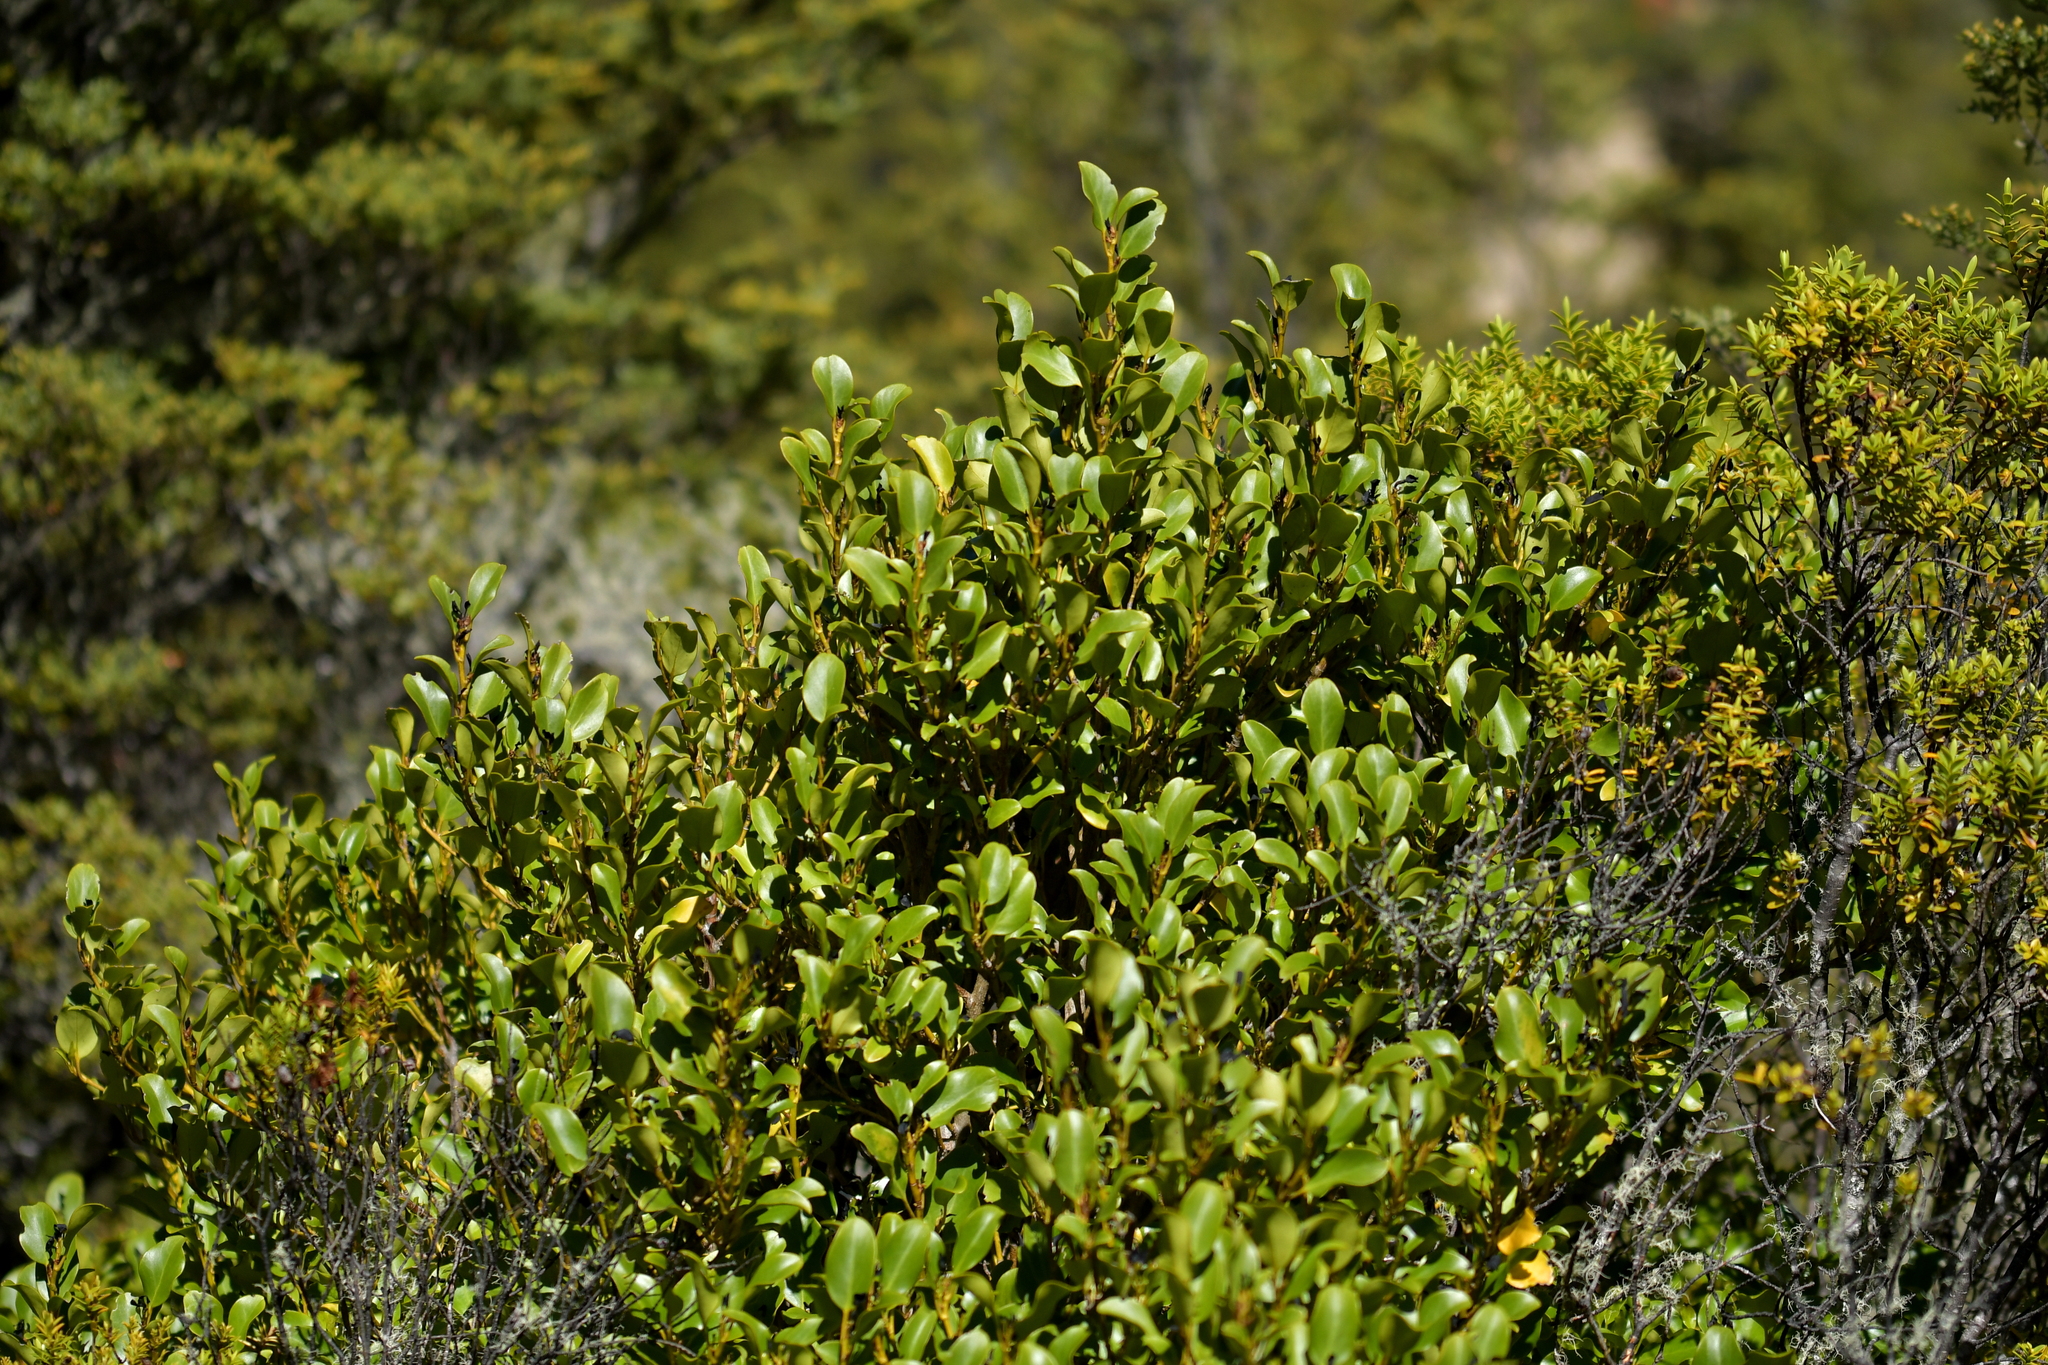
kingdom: Plantae
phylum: Tracheophyta
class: Magnoliopsida
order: Apiales
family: Griseliniaceae
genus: Griselinia
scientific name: Griselinia littoralis
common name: New zealand broadleaf
